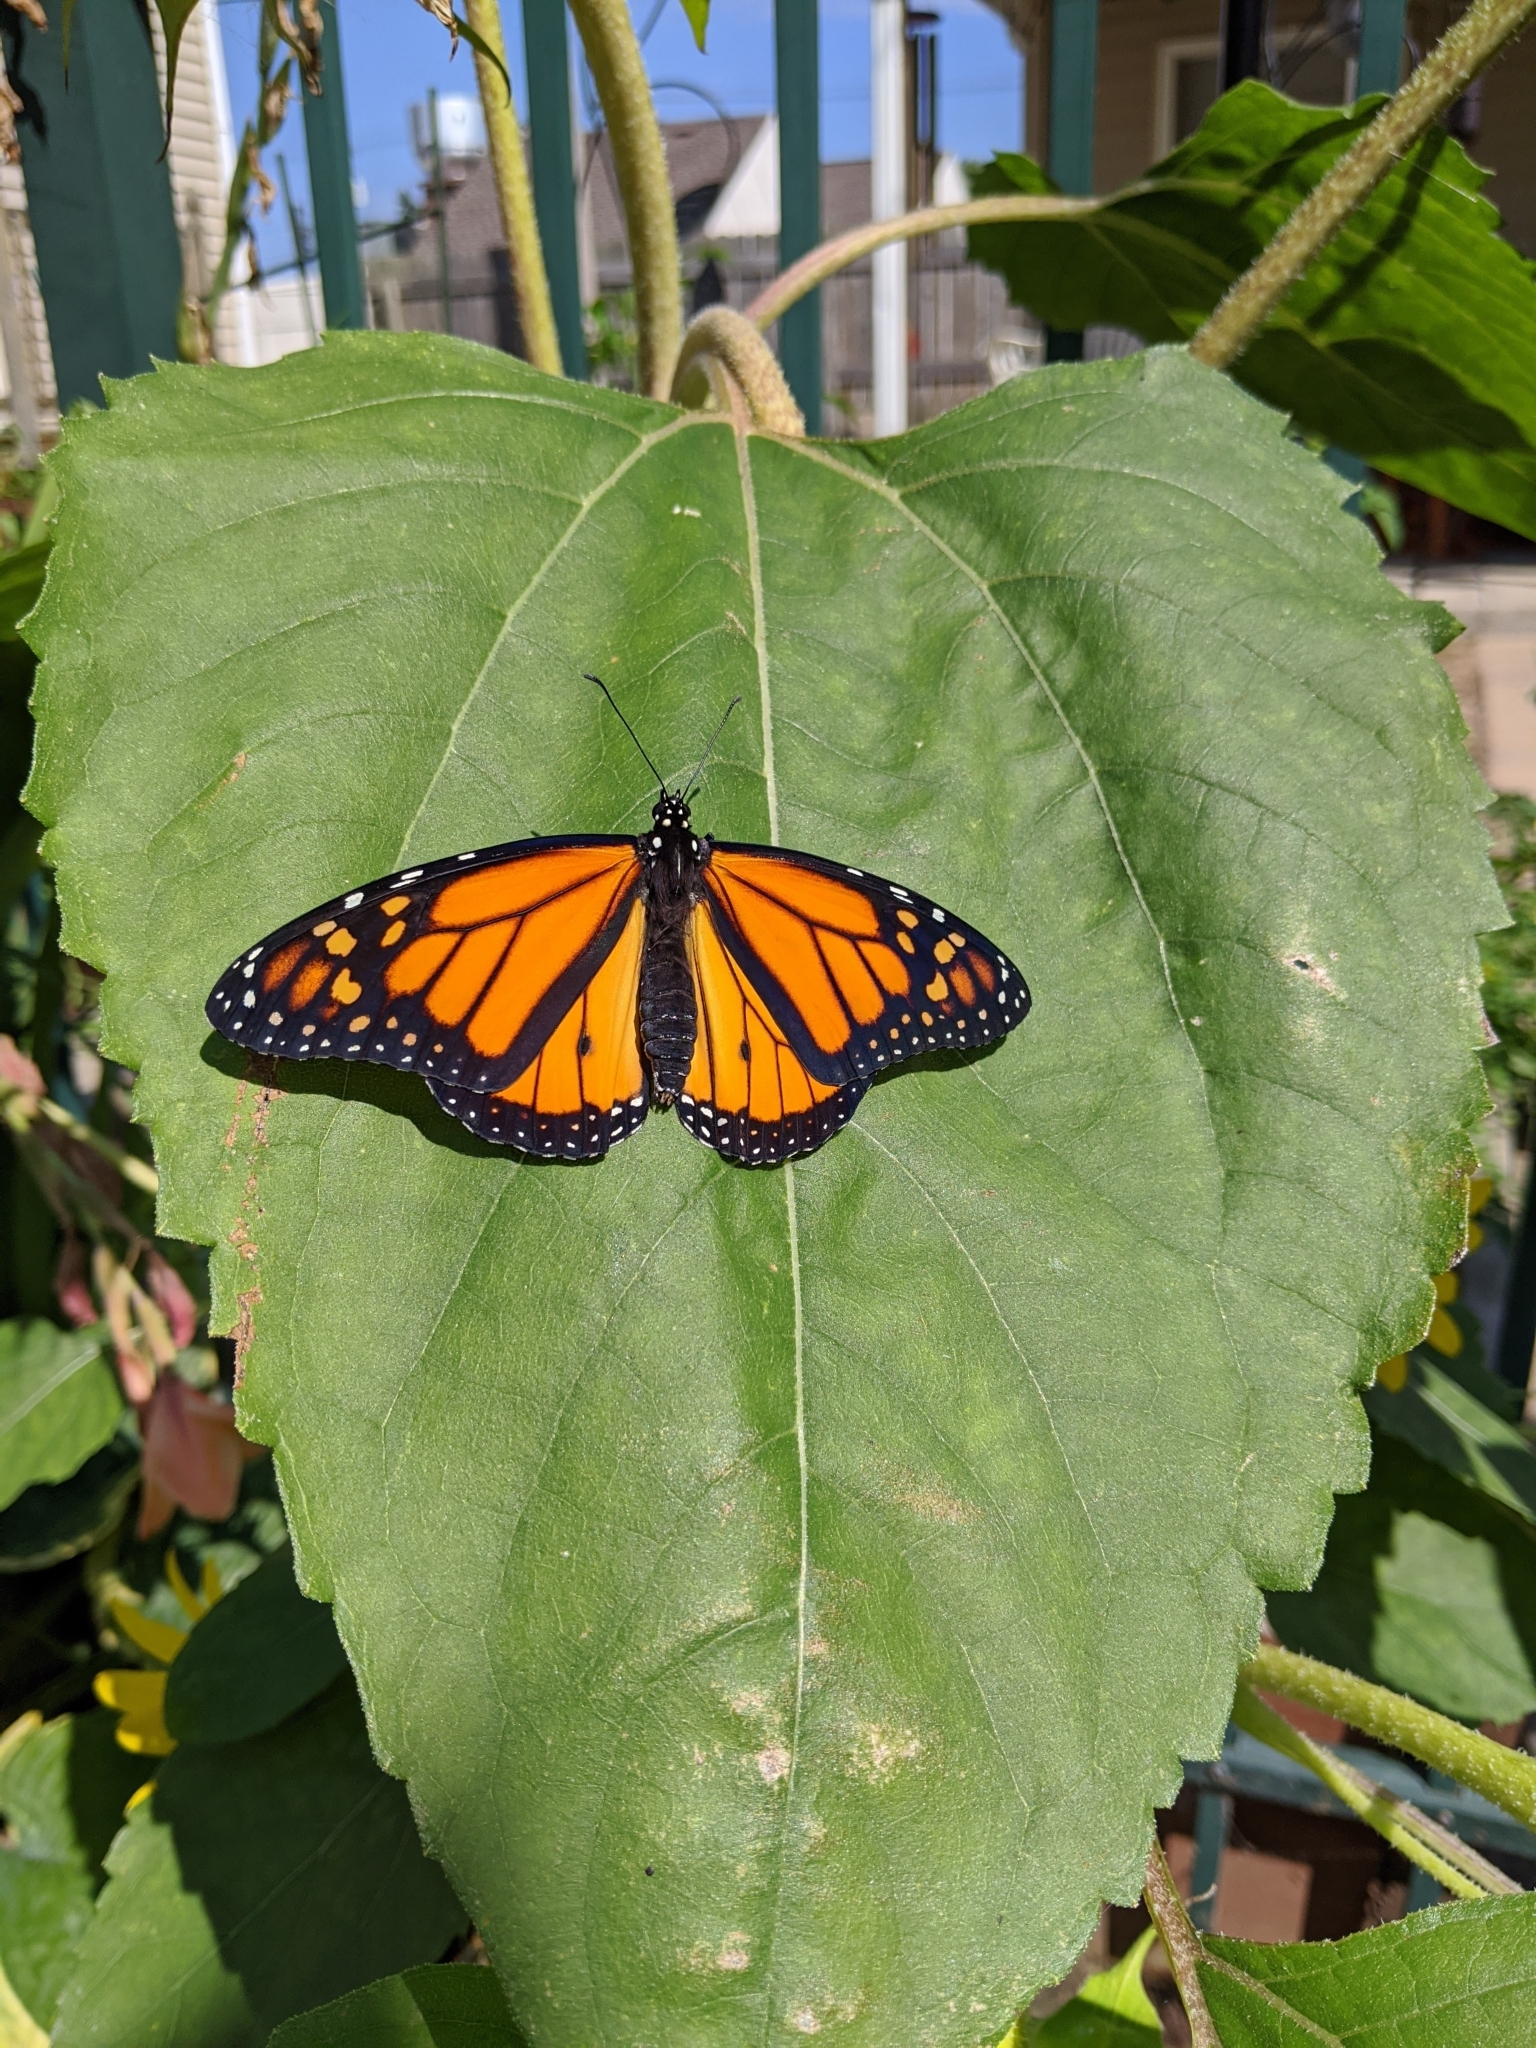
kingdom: Animalia
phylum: Arthropoda
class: Insecta
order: Lepidoptera
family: Nymphalidae
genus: Danaus
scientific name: Danaus plexippus
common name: Monarch
